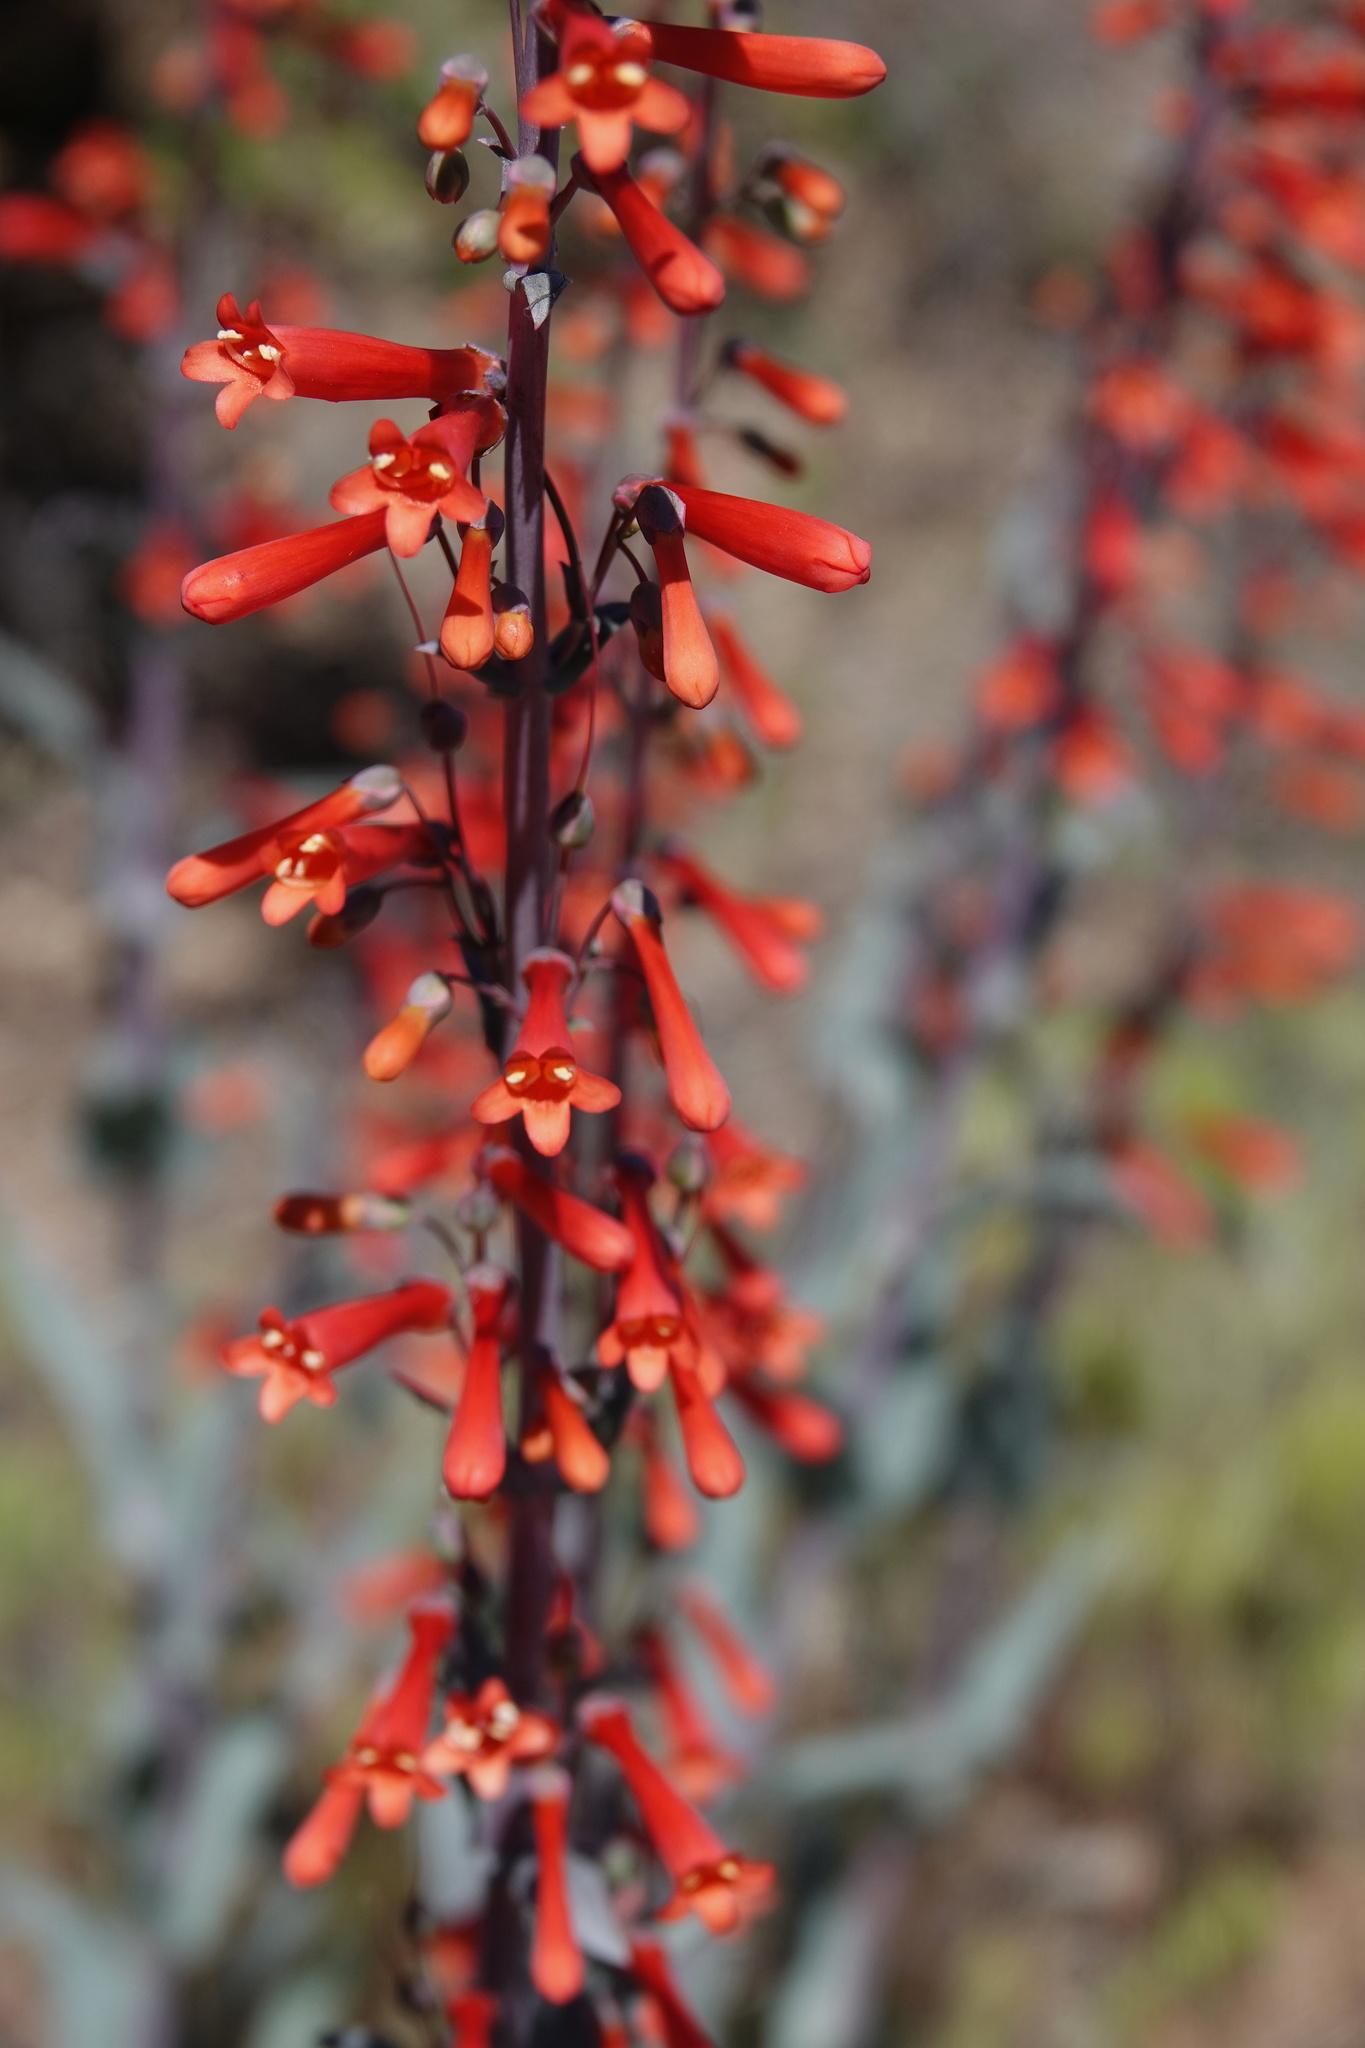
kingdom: Plantae
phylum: Tracheophyta
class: Magnoliopsida
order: Lamiales
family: Plantaginaceae
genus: Penstemon
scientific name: Penstemon centranthifolius
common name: Scarlet bugler
